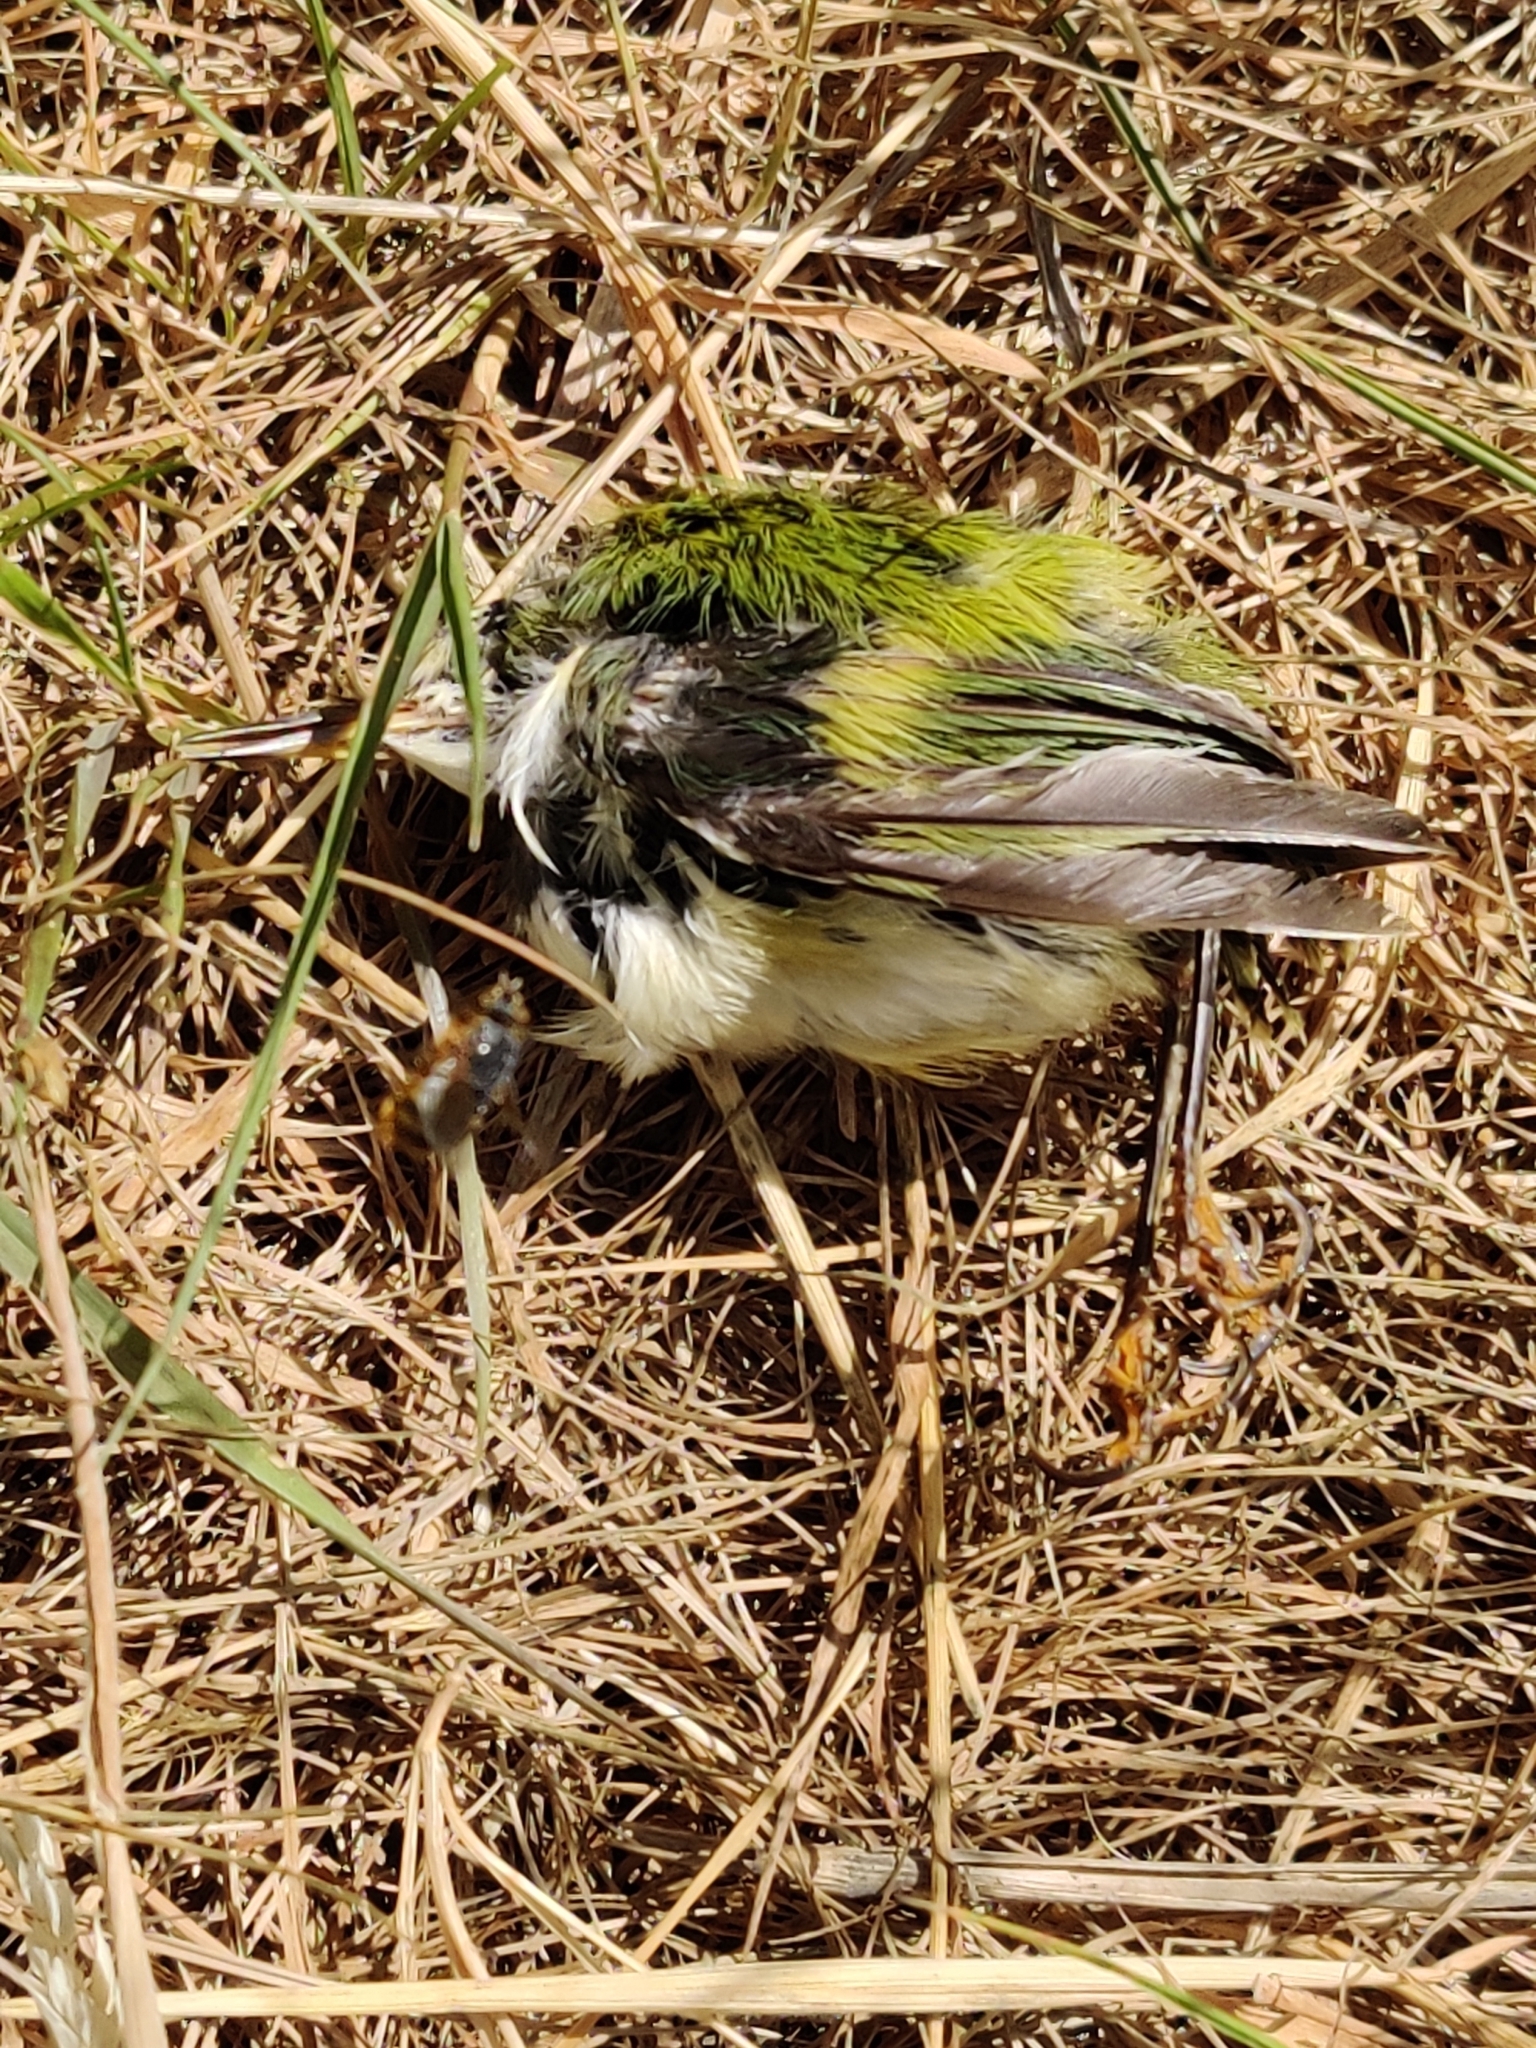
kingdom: Animalia
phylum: Chordata
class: Aves
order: Passeriformes
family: Acanthisittidae
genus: Acanthisitta
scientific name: Acanthisitta chloris
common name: Rifleman
